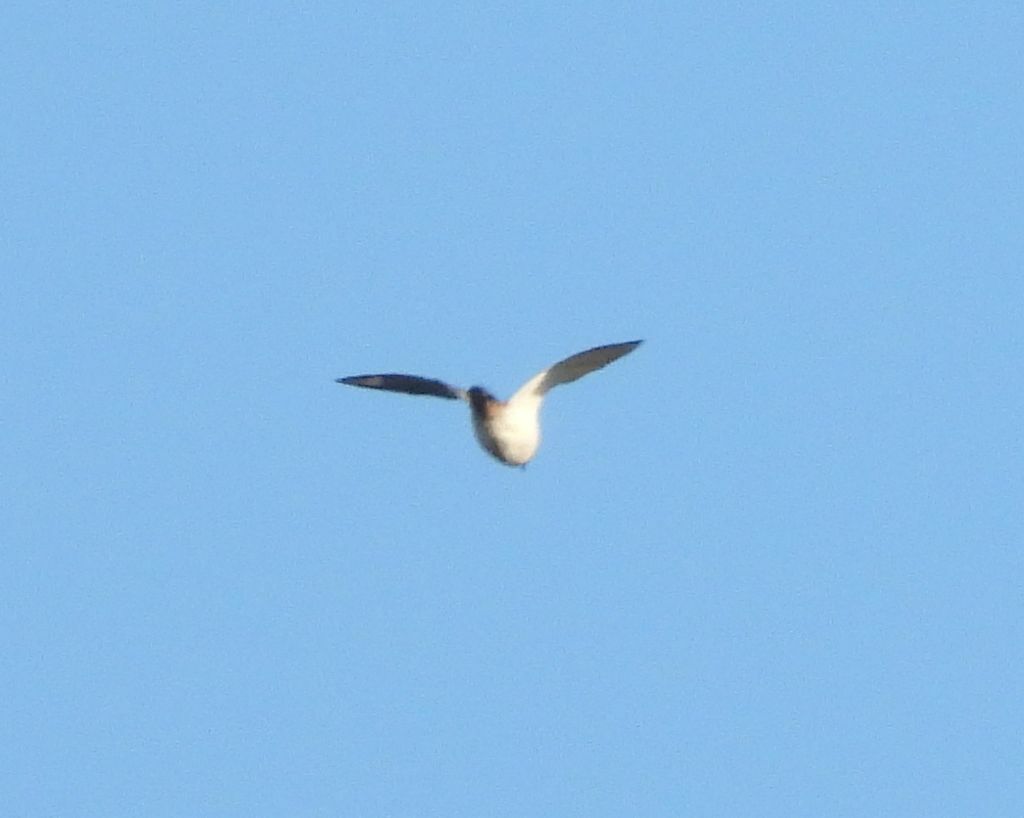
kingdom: Animalia
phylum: Chordata
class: Aves
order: Charadriiformes
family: Charadriidae
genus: Charadrius
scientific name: Charadrius vociferus
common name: Killdeer
